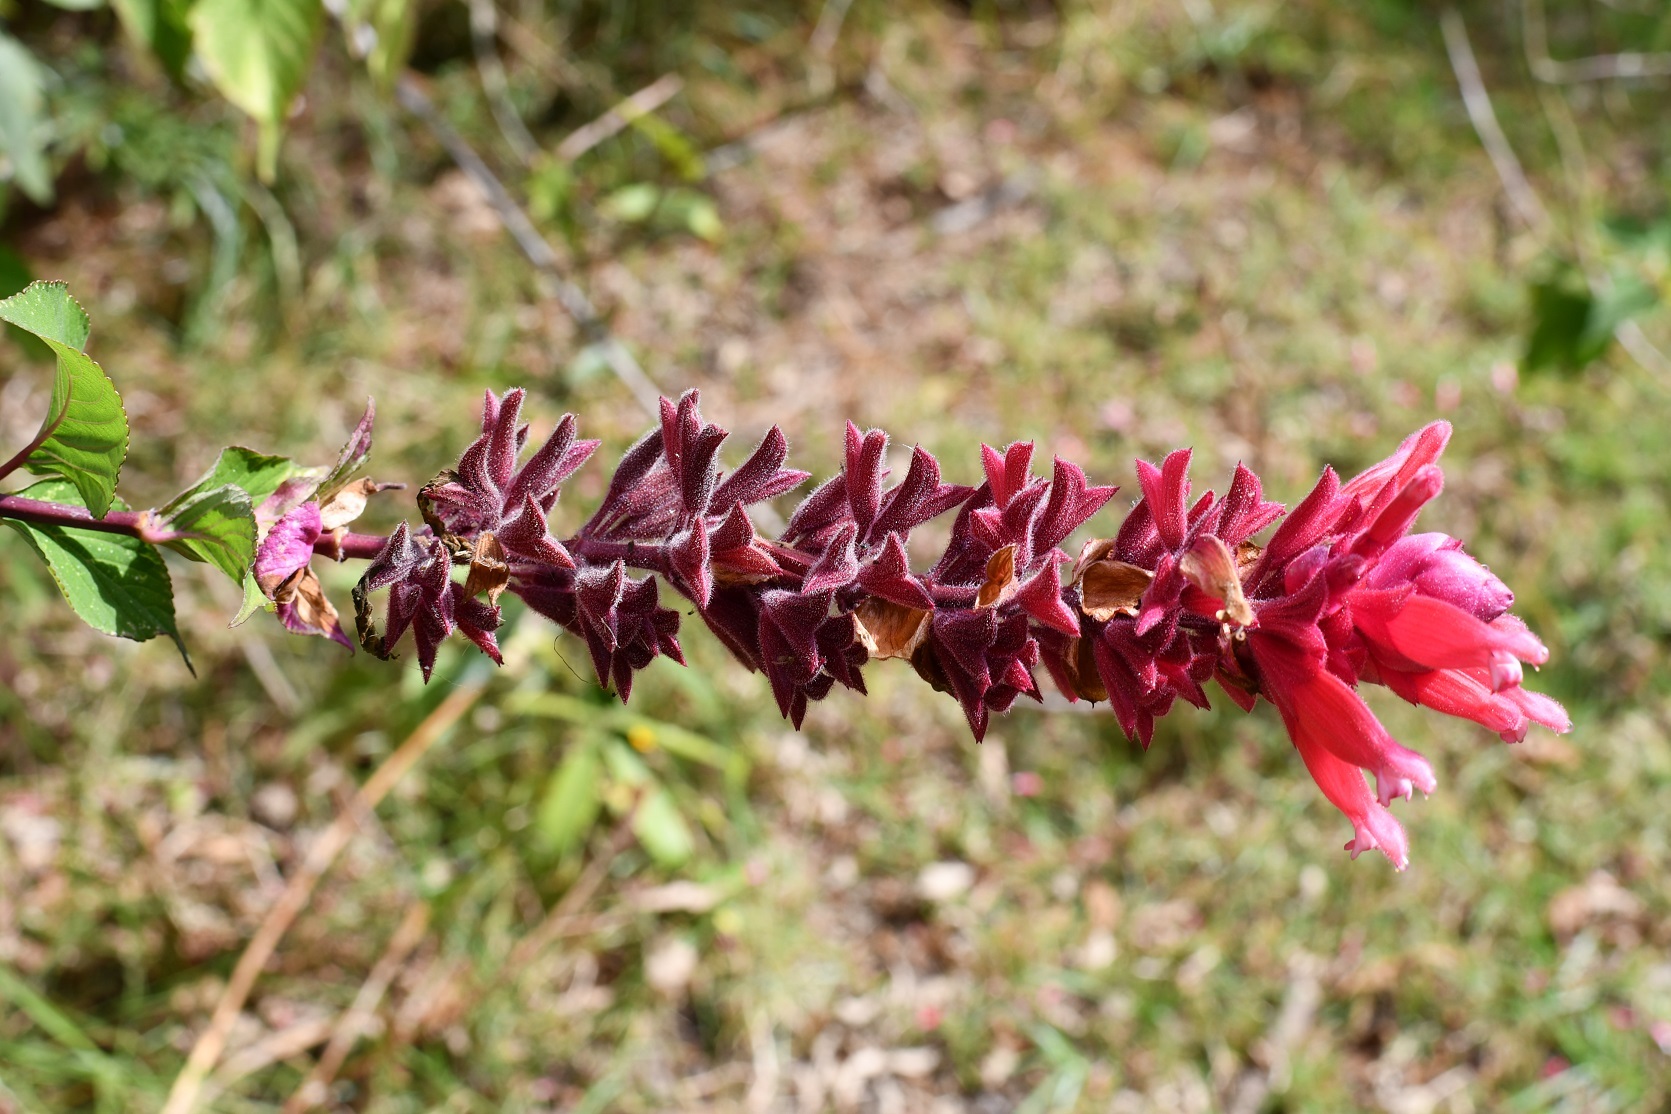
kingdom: Plantae
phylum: Tracheophyta
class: Magnoliopsida
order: Lamiales
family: Lamiaceae
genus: Salvia
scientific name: Salvia wagneriana
